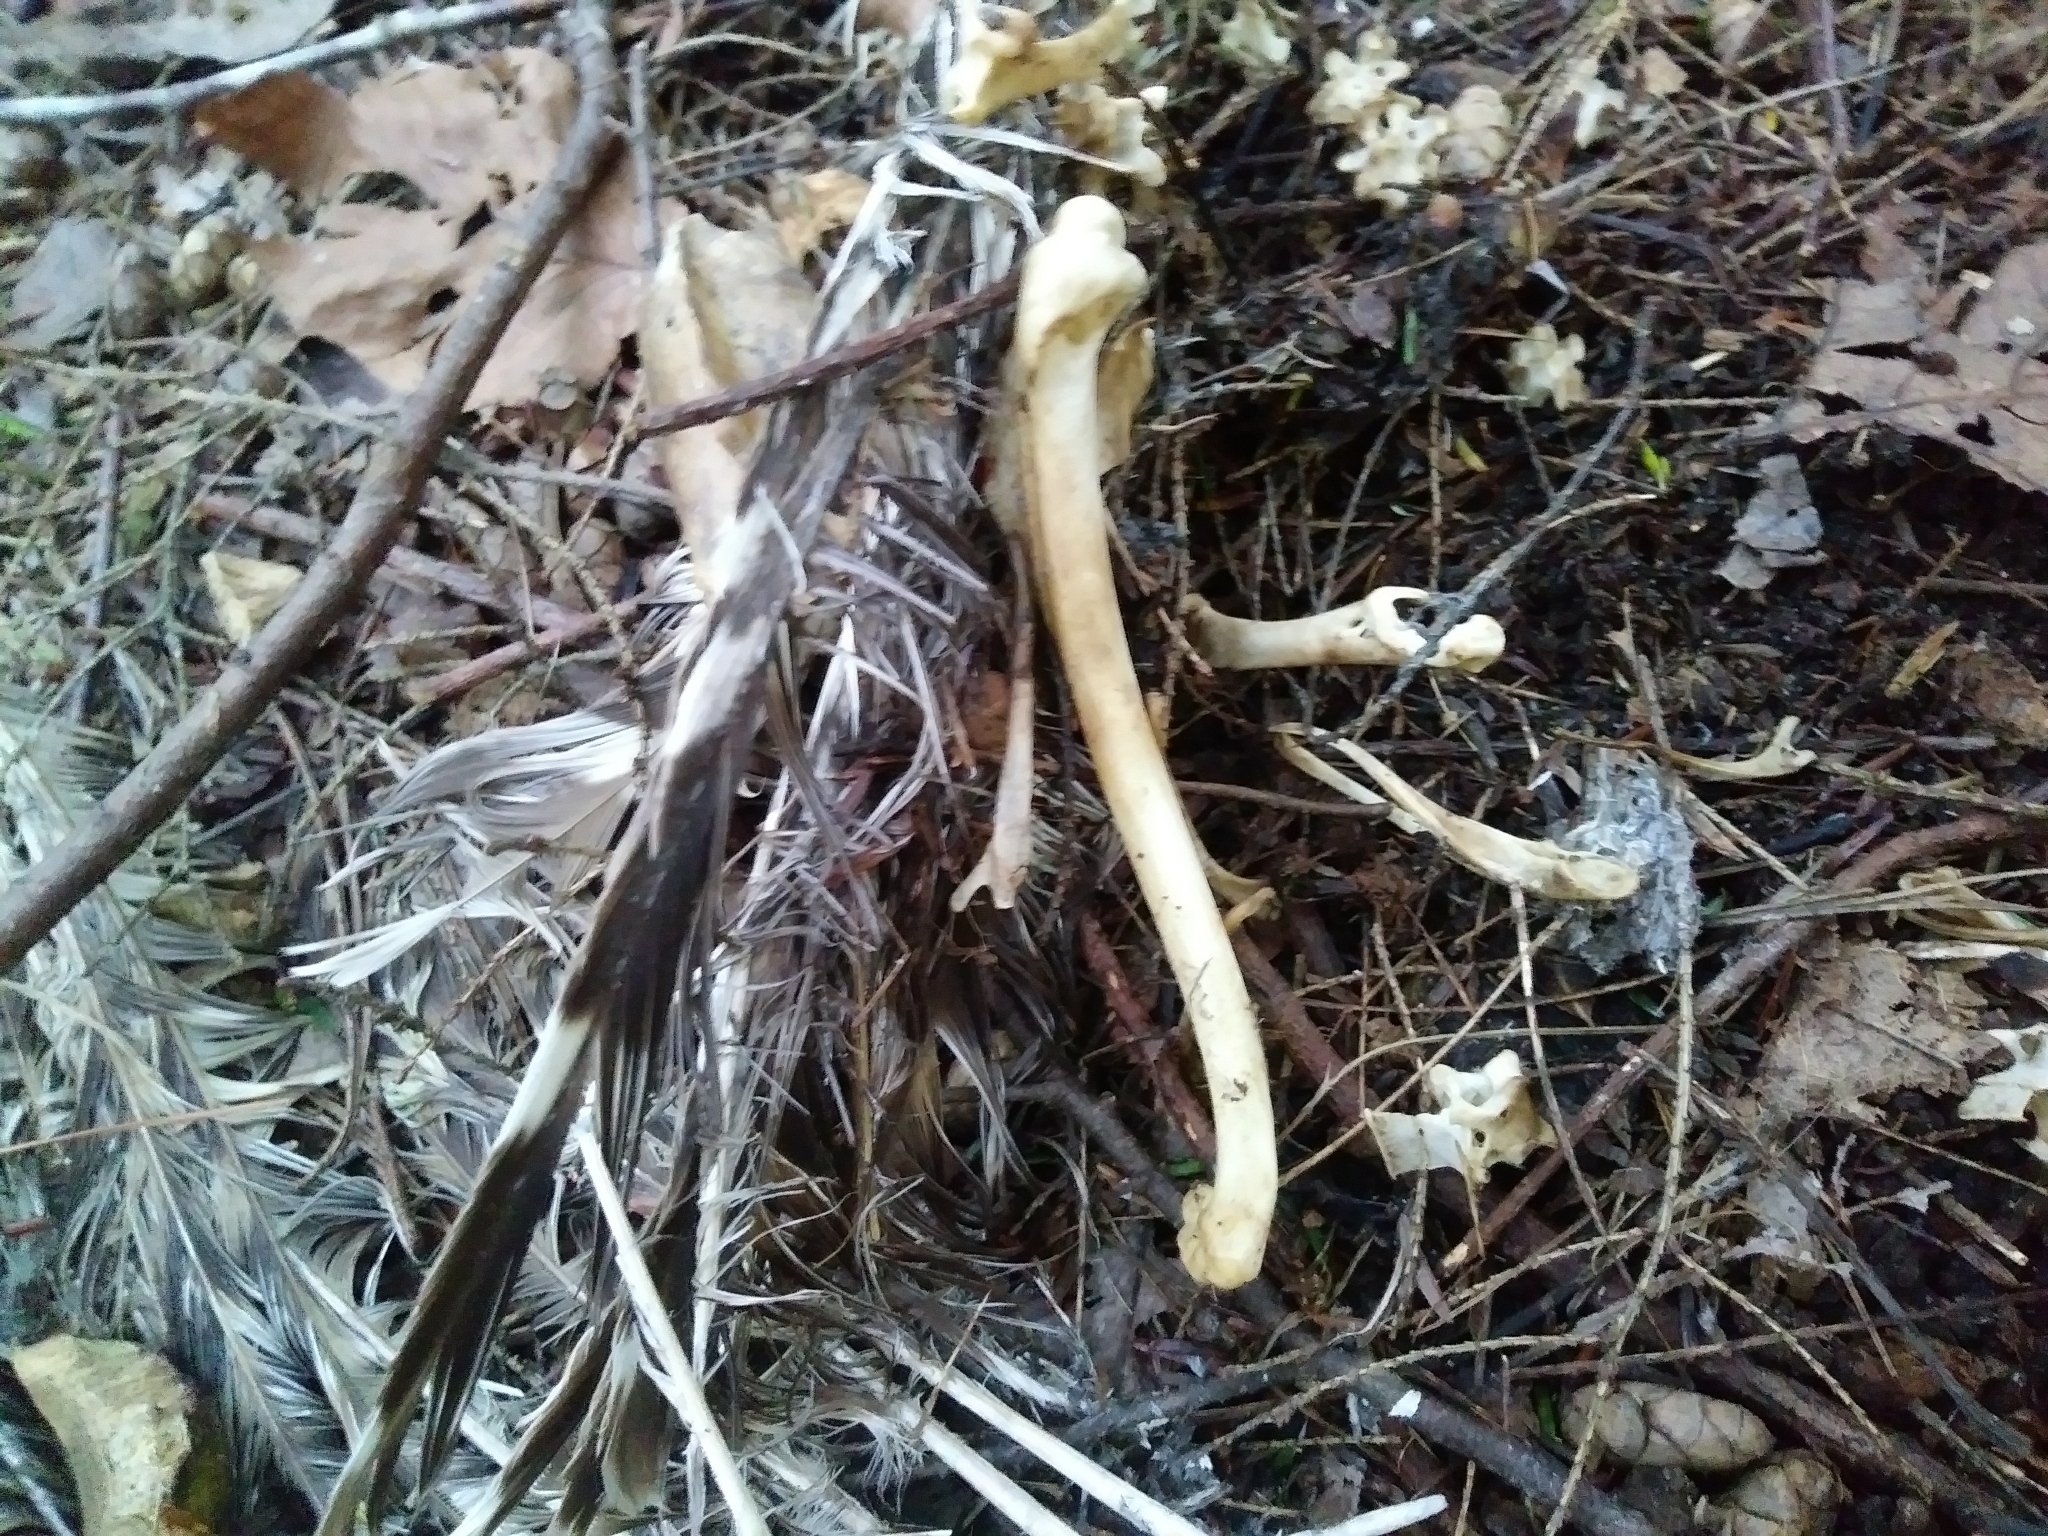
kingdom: Animalia
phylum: Chordata
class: Aves
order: Strigiformes
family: Strigidae
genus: Strix
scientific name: Strix varia
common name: Barred owl
